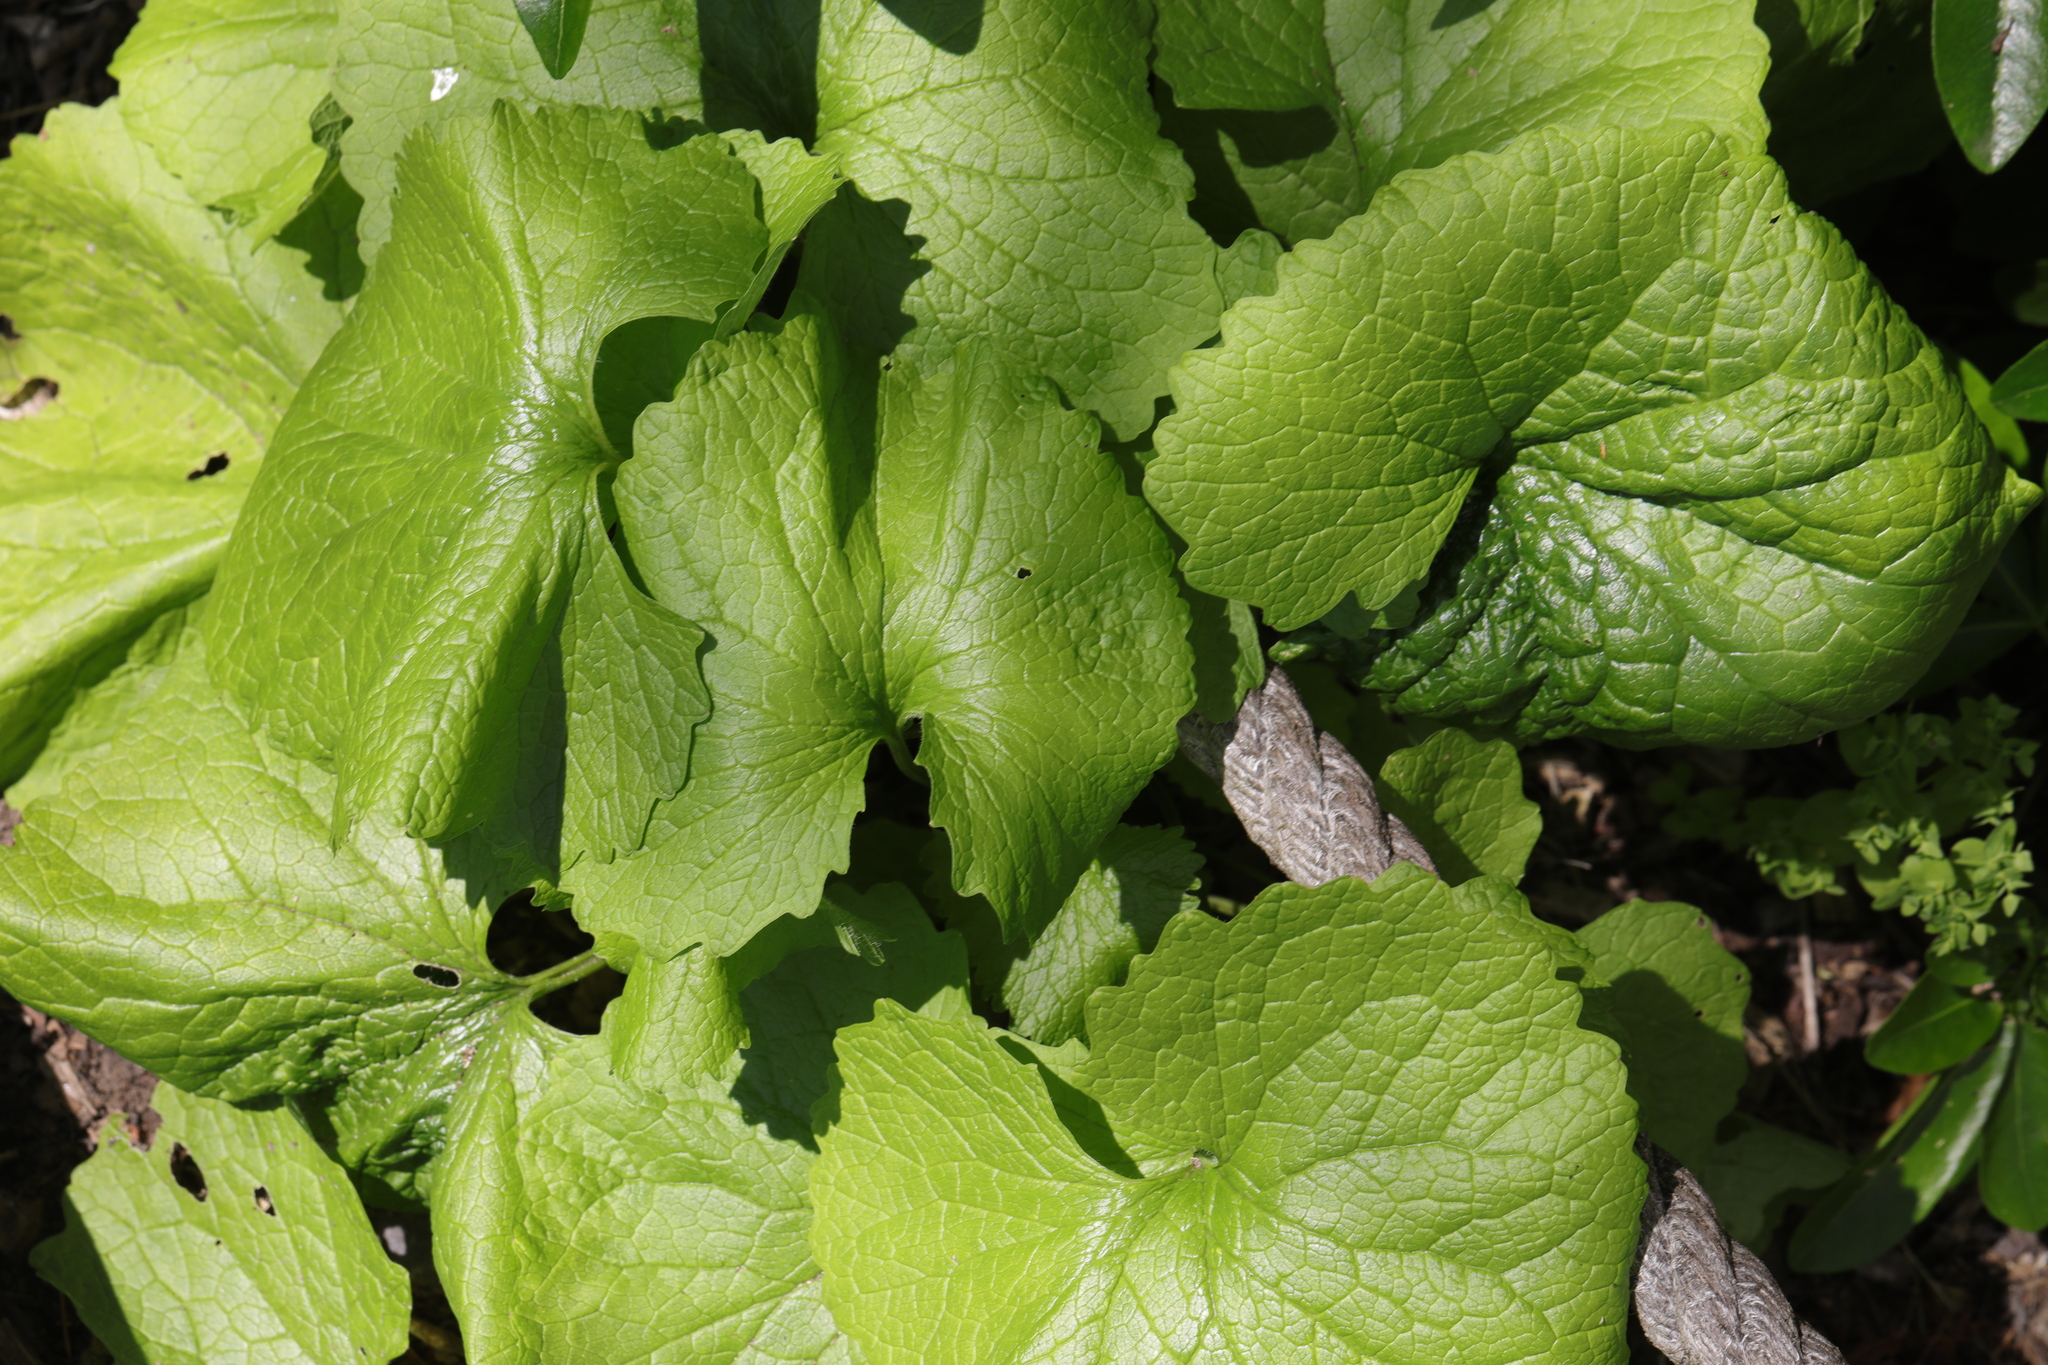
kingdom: Plantae
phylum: Tracheophyta
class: Magnoliopsida
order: Brassicales
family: Brassicaceae
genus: Alliaria
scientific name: Alliaria petiolata
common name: Garlic mustard
